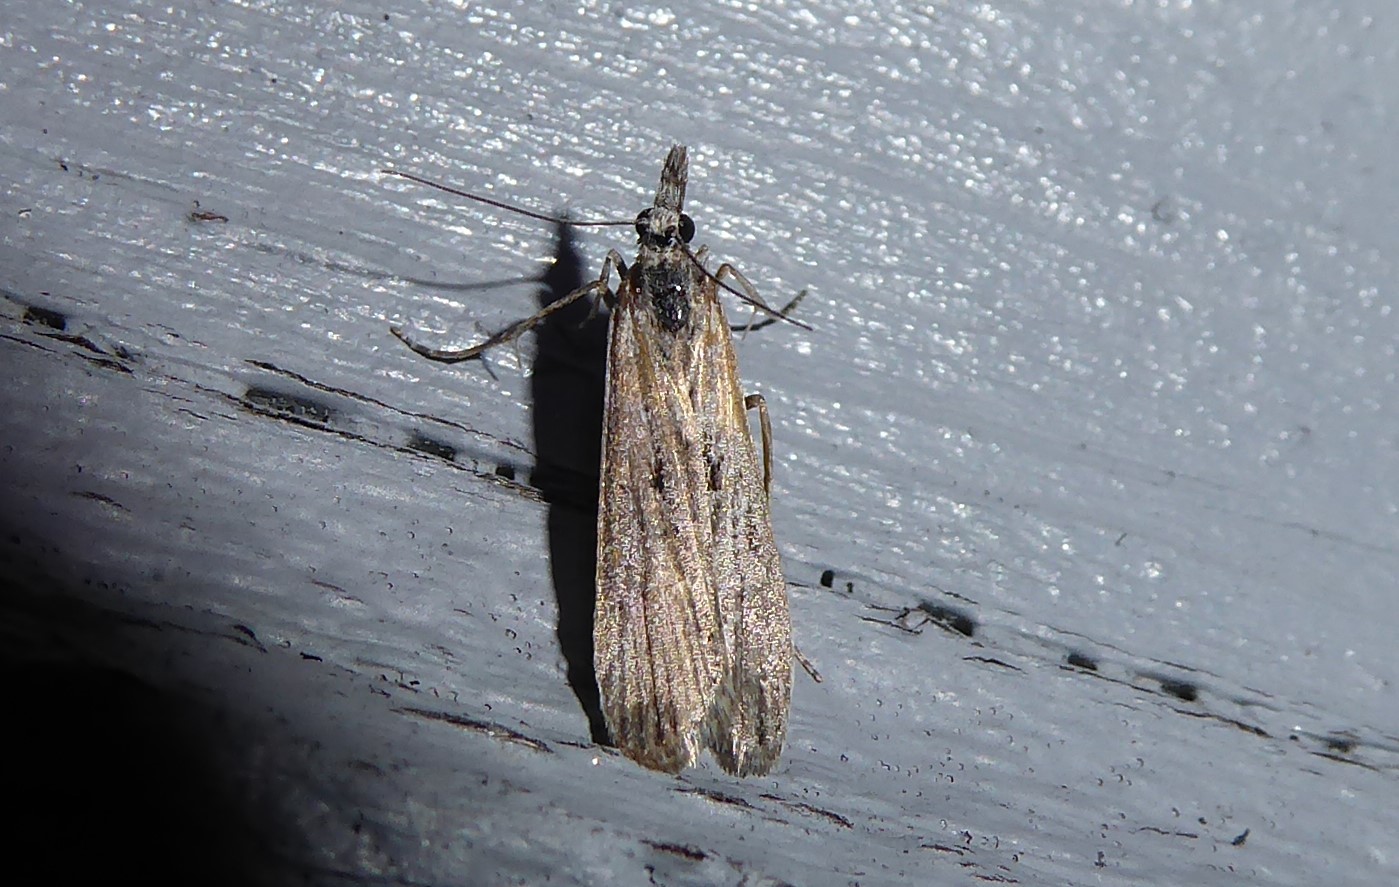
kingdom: Animalia
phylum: Arthropoda
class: Insecta
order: Lepidoptera
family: Crambidae
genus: Eudonia
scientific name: Eudonia leptalea
